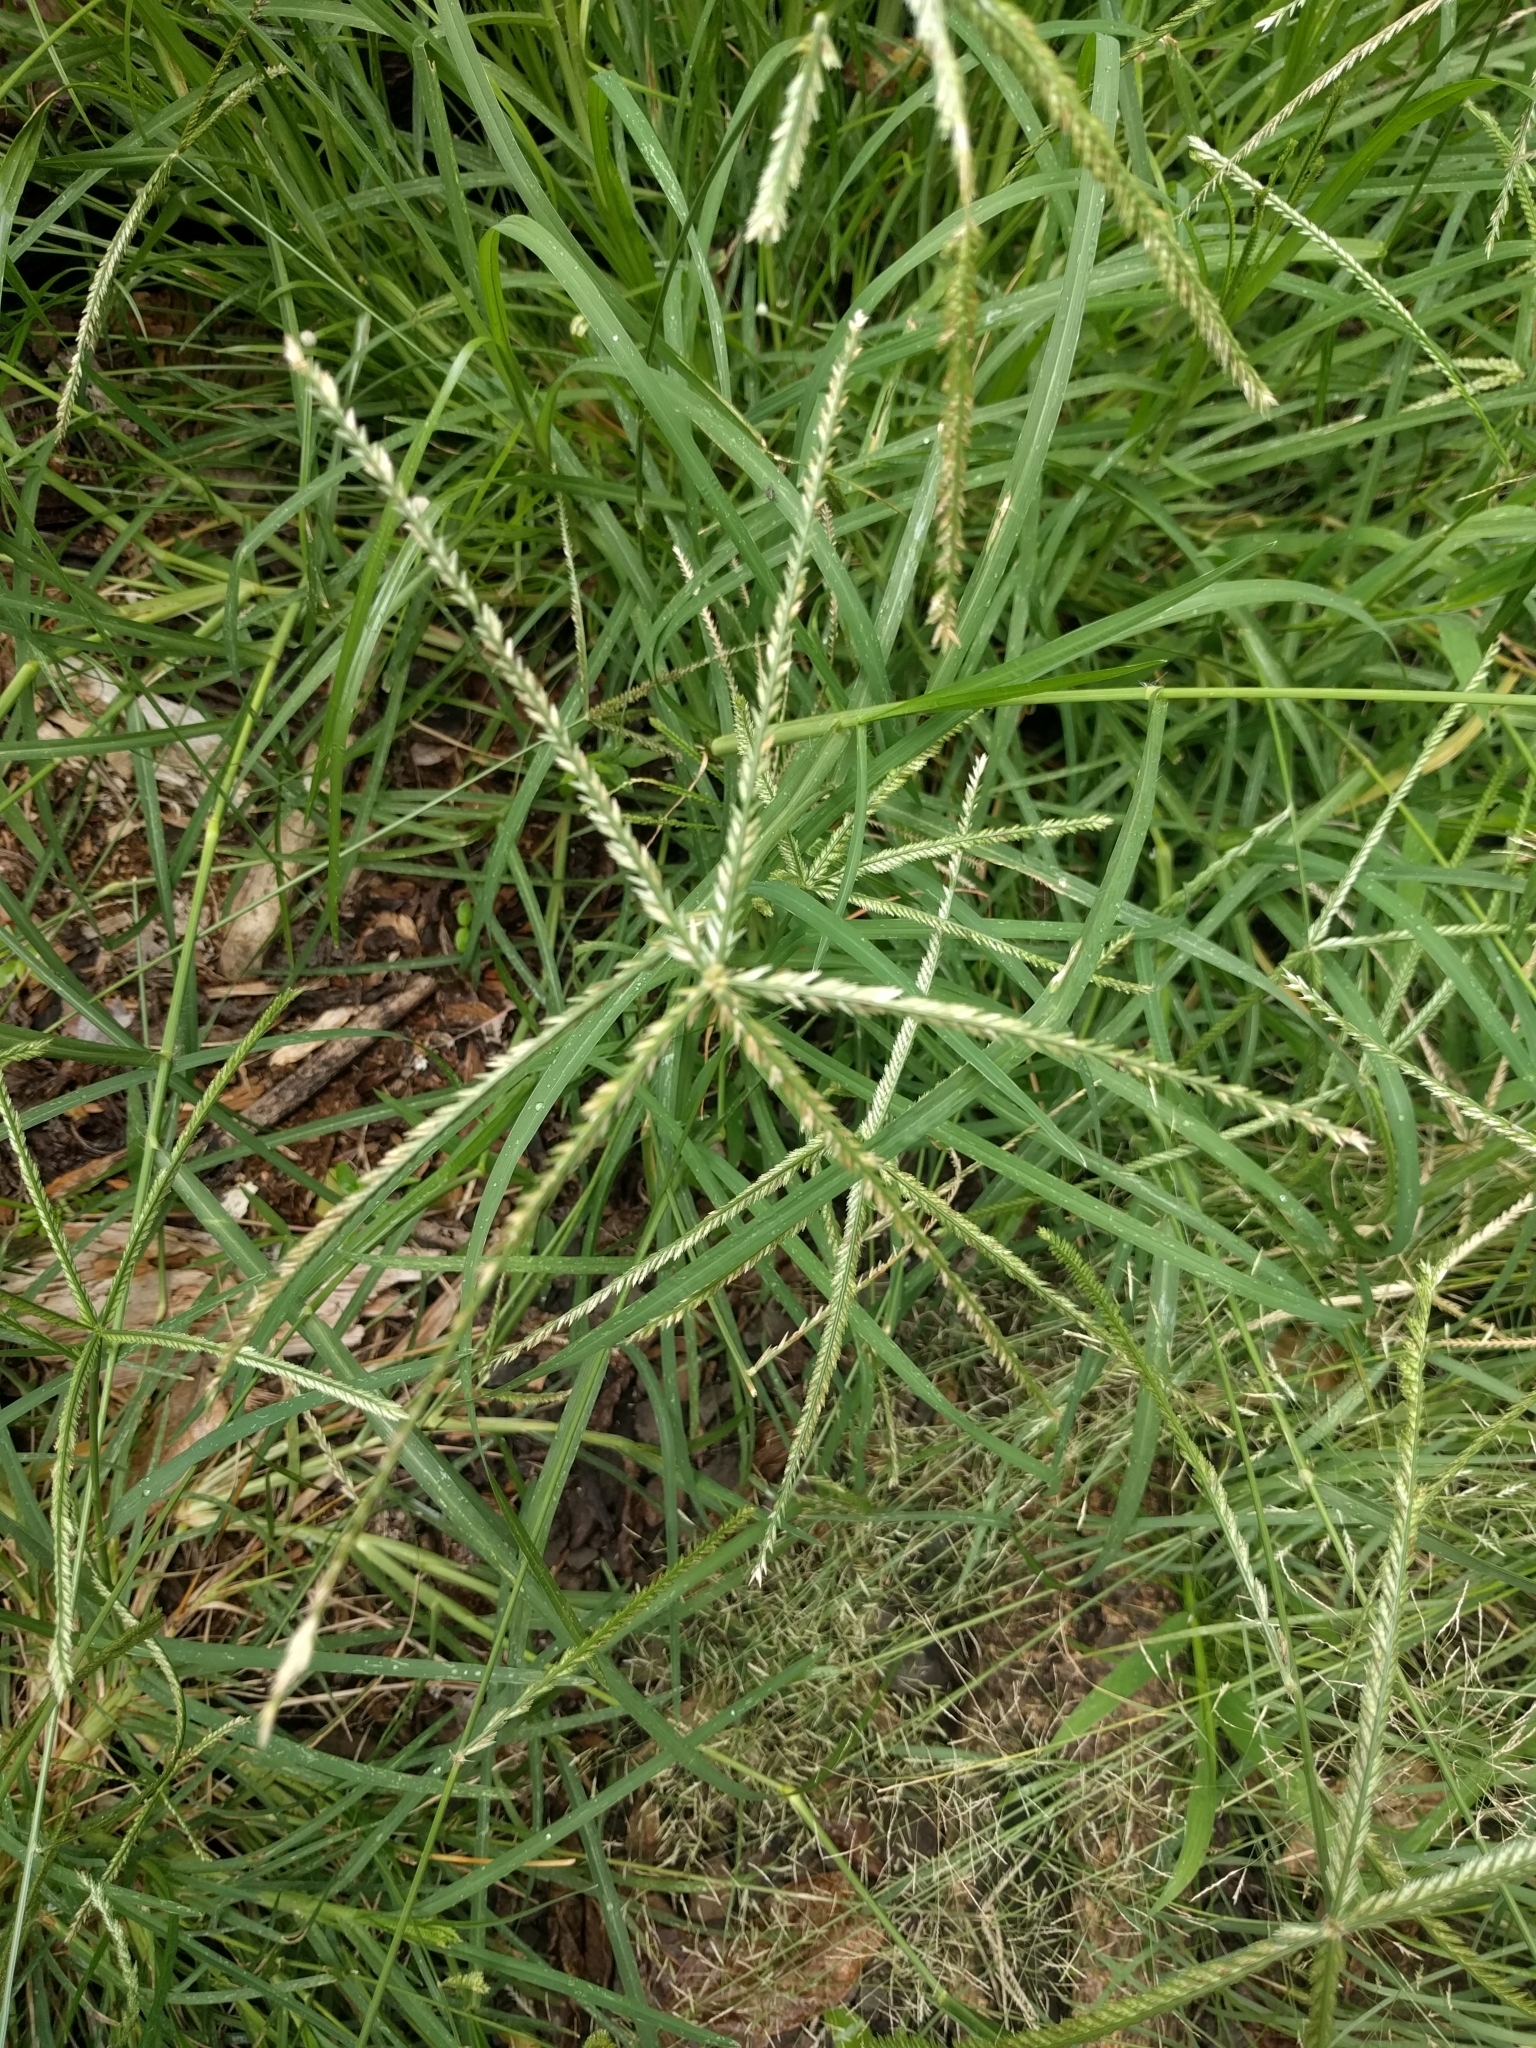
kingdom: Plantae
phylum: Tracheophyta
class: Liliopsida
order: Poales
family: Poaceae
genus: Eleusine
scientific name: Eleusine indica
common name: Yard-grass
